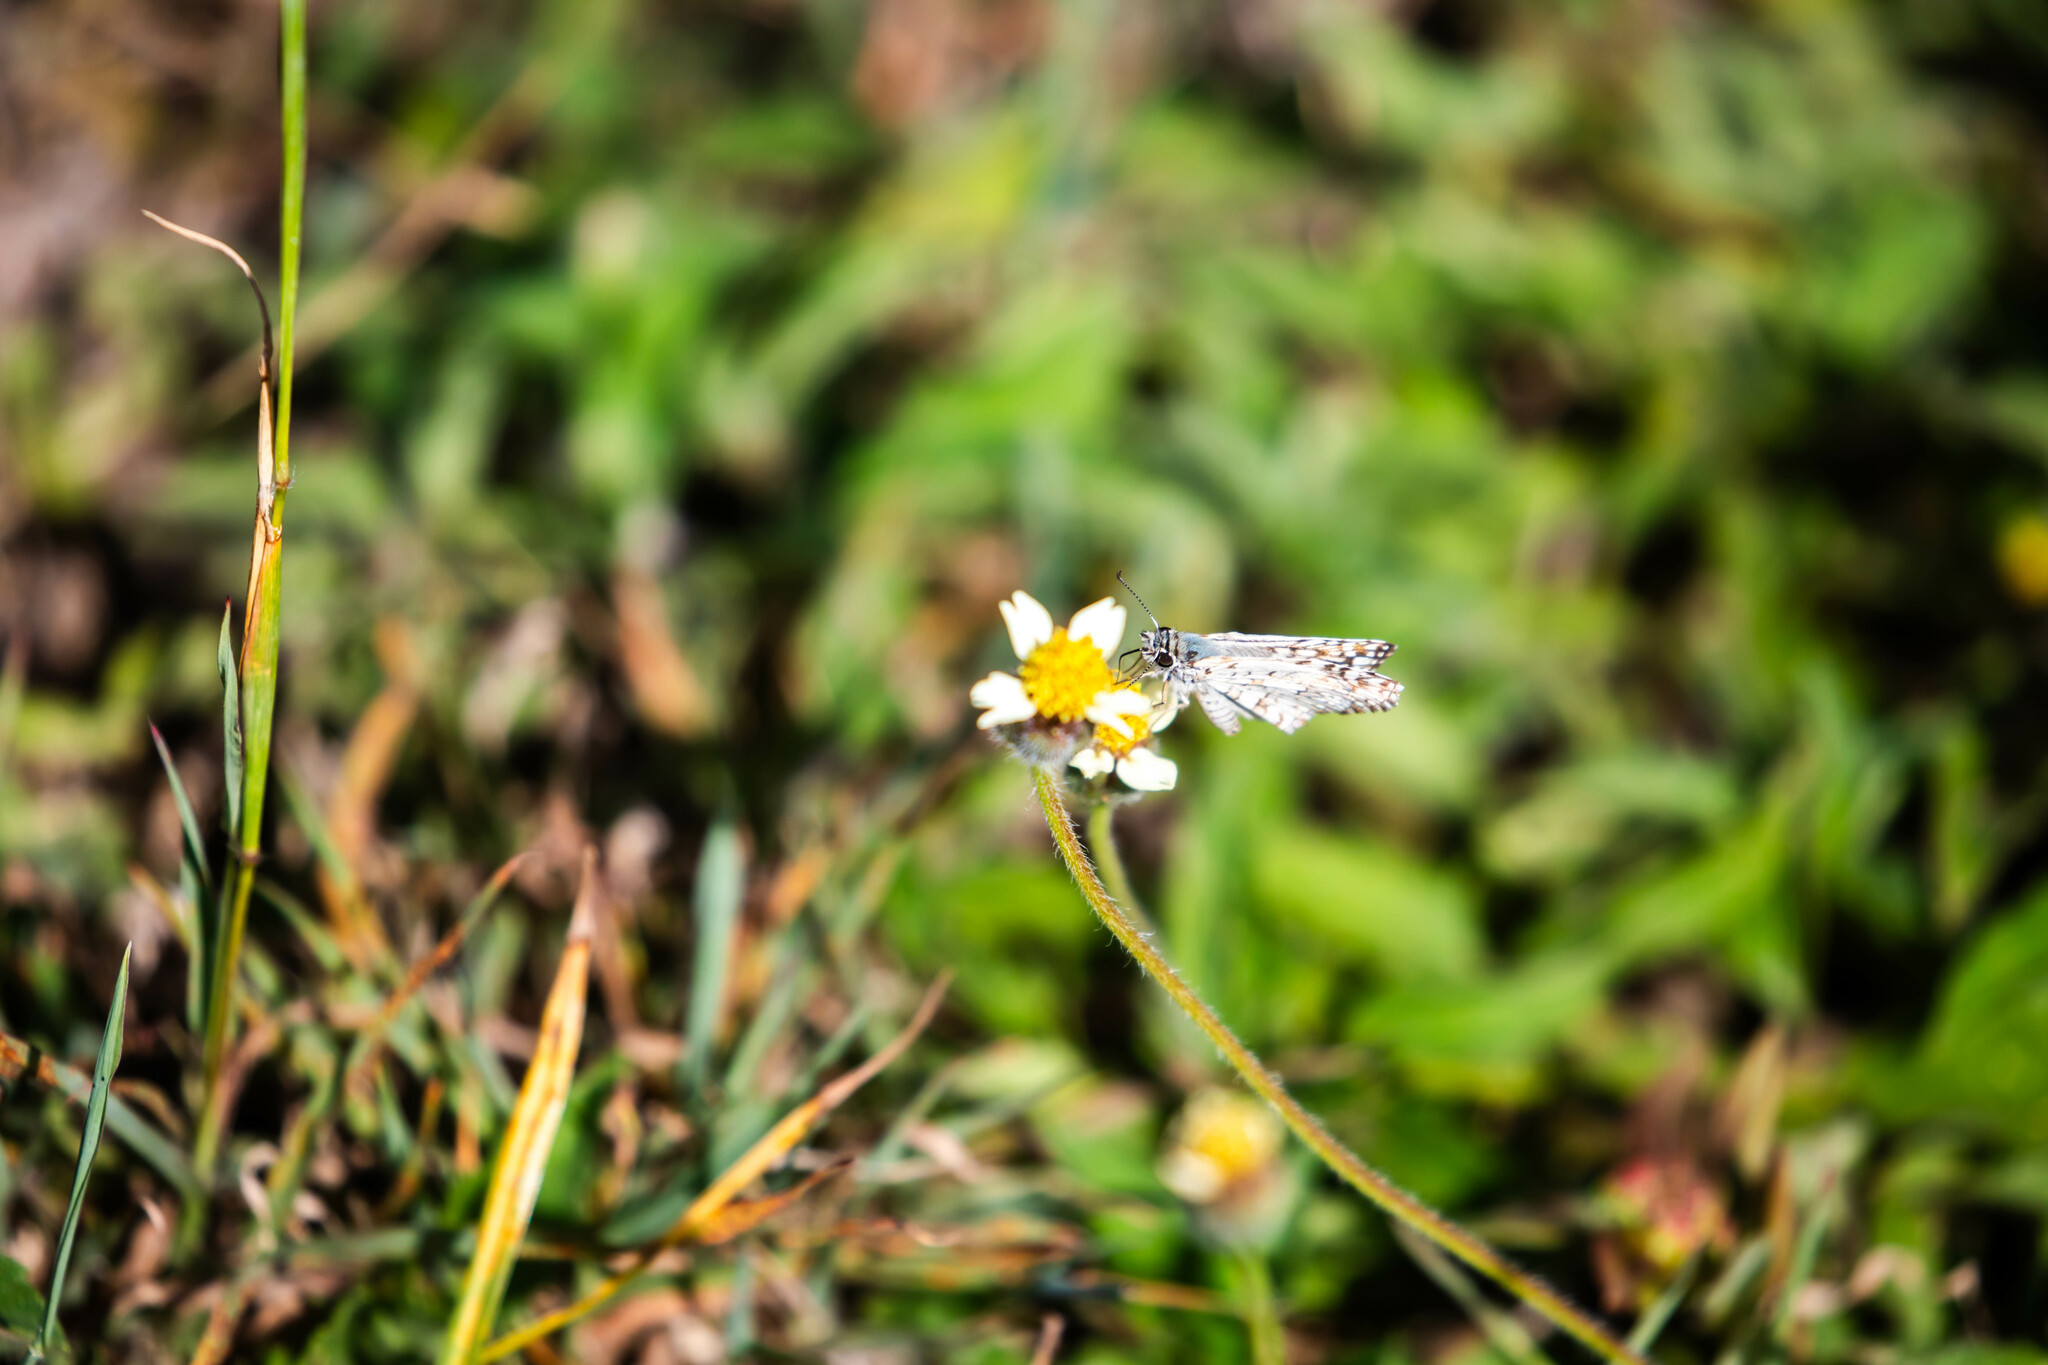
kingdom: Animalia
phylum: Arthropoda
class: Insecta
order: Lepidoptera
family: Hesperiidae
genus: Pyrgus
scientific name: Pyrgus oileus
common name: Tropical checkered-skipper
